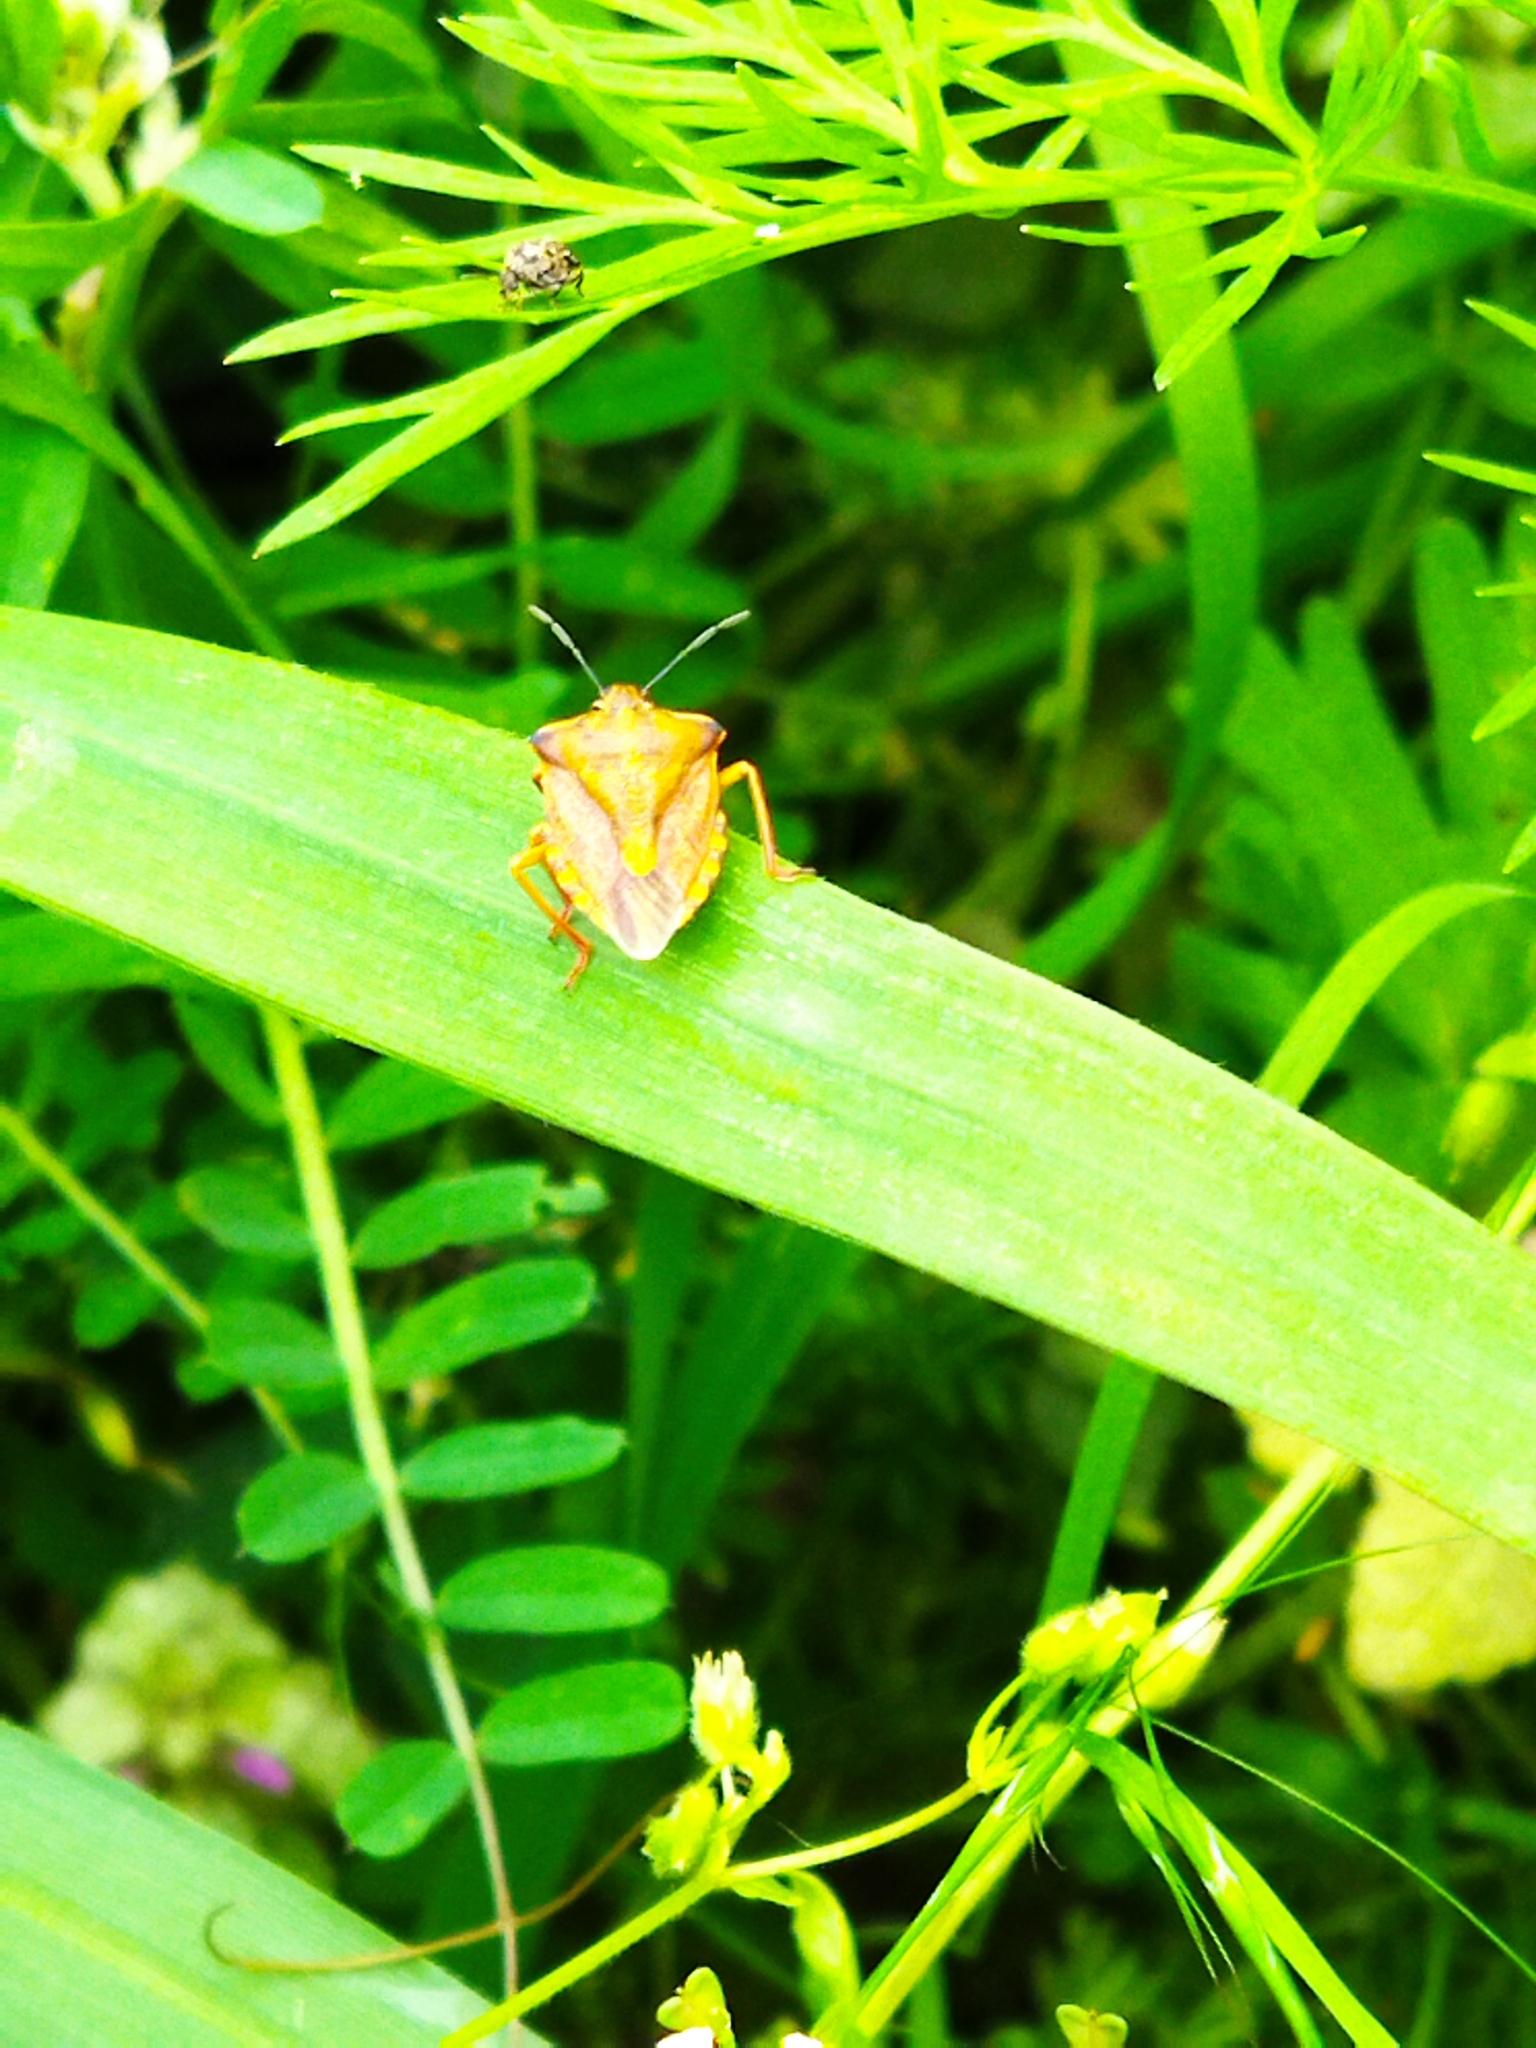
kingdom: Animalia
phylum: Arthropoda
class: Insecta
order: Hemiptera
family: Pentatomidae
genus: Carpocoris
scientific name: Carpocoris purpureipennis
